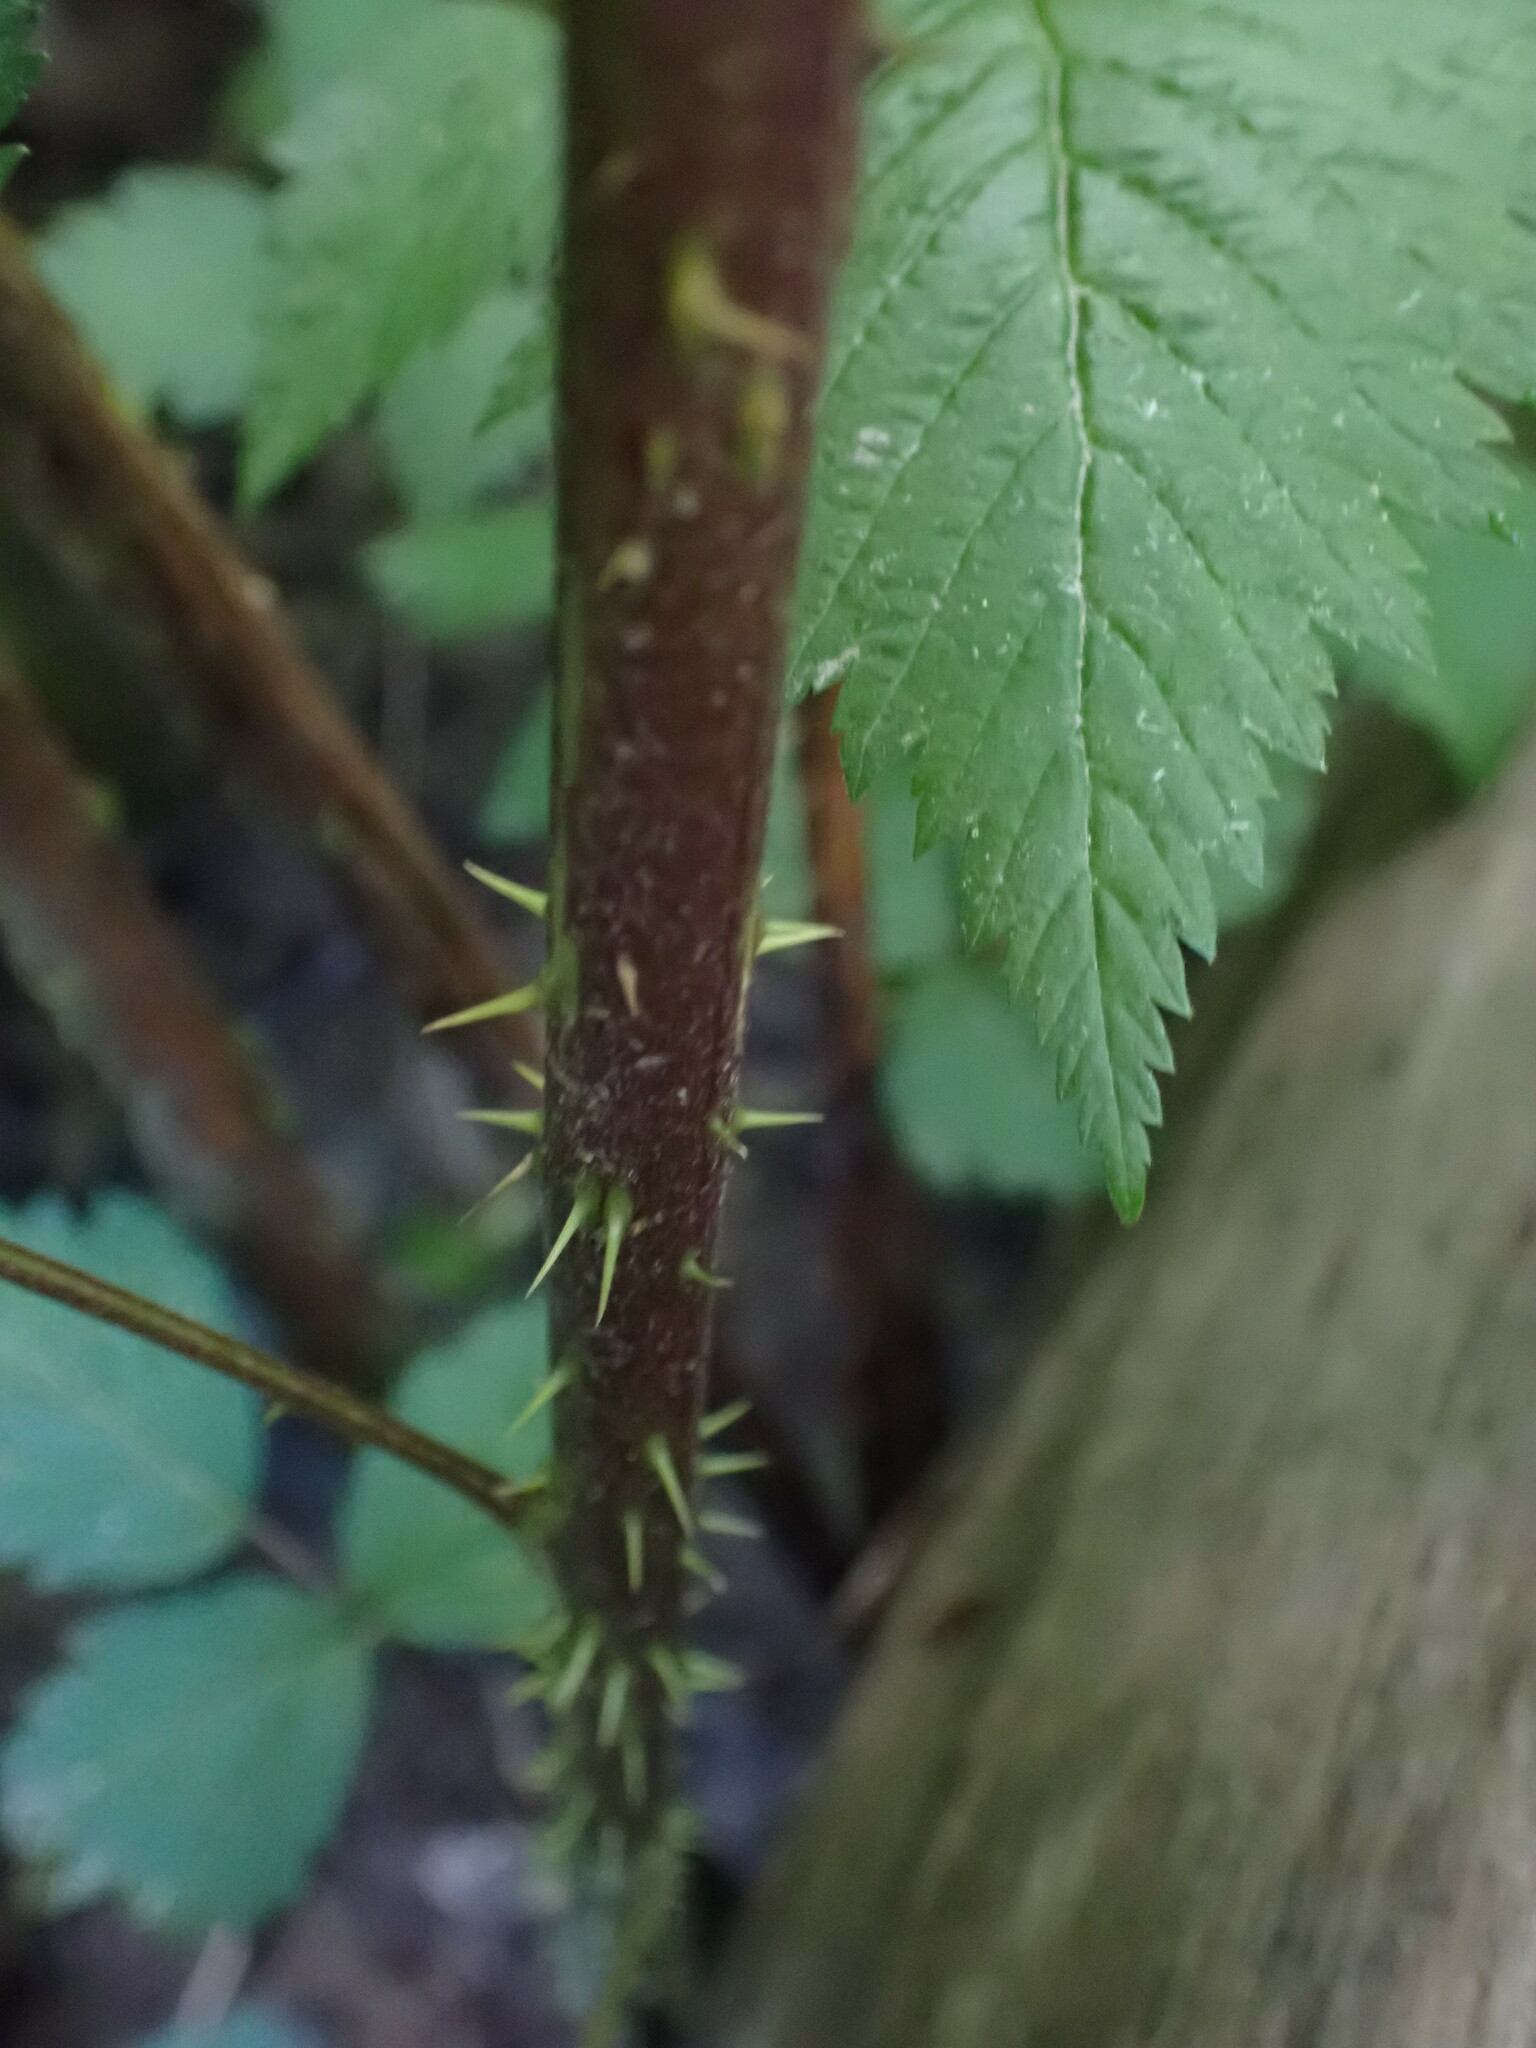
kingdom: Plantae
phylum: Tracheophyta
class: Magnoliopsida
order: Rosales
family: Rosaceae
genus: Rubus
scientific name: Rubus spectabilis
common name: Salmonberry
